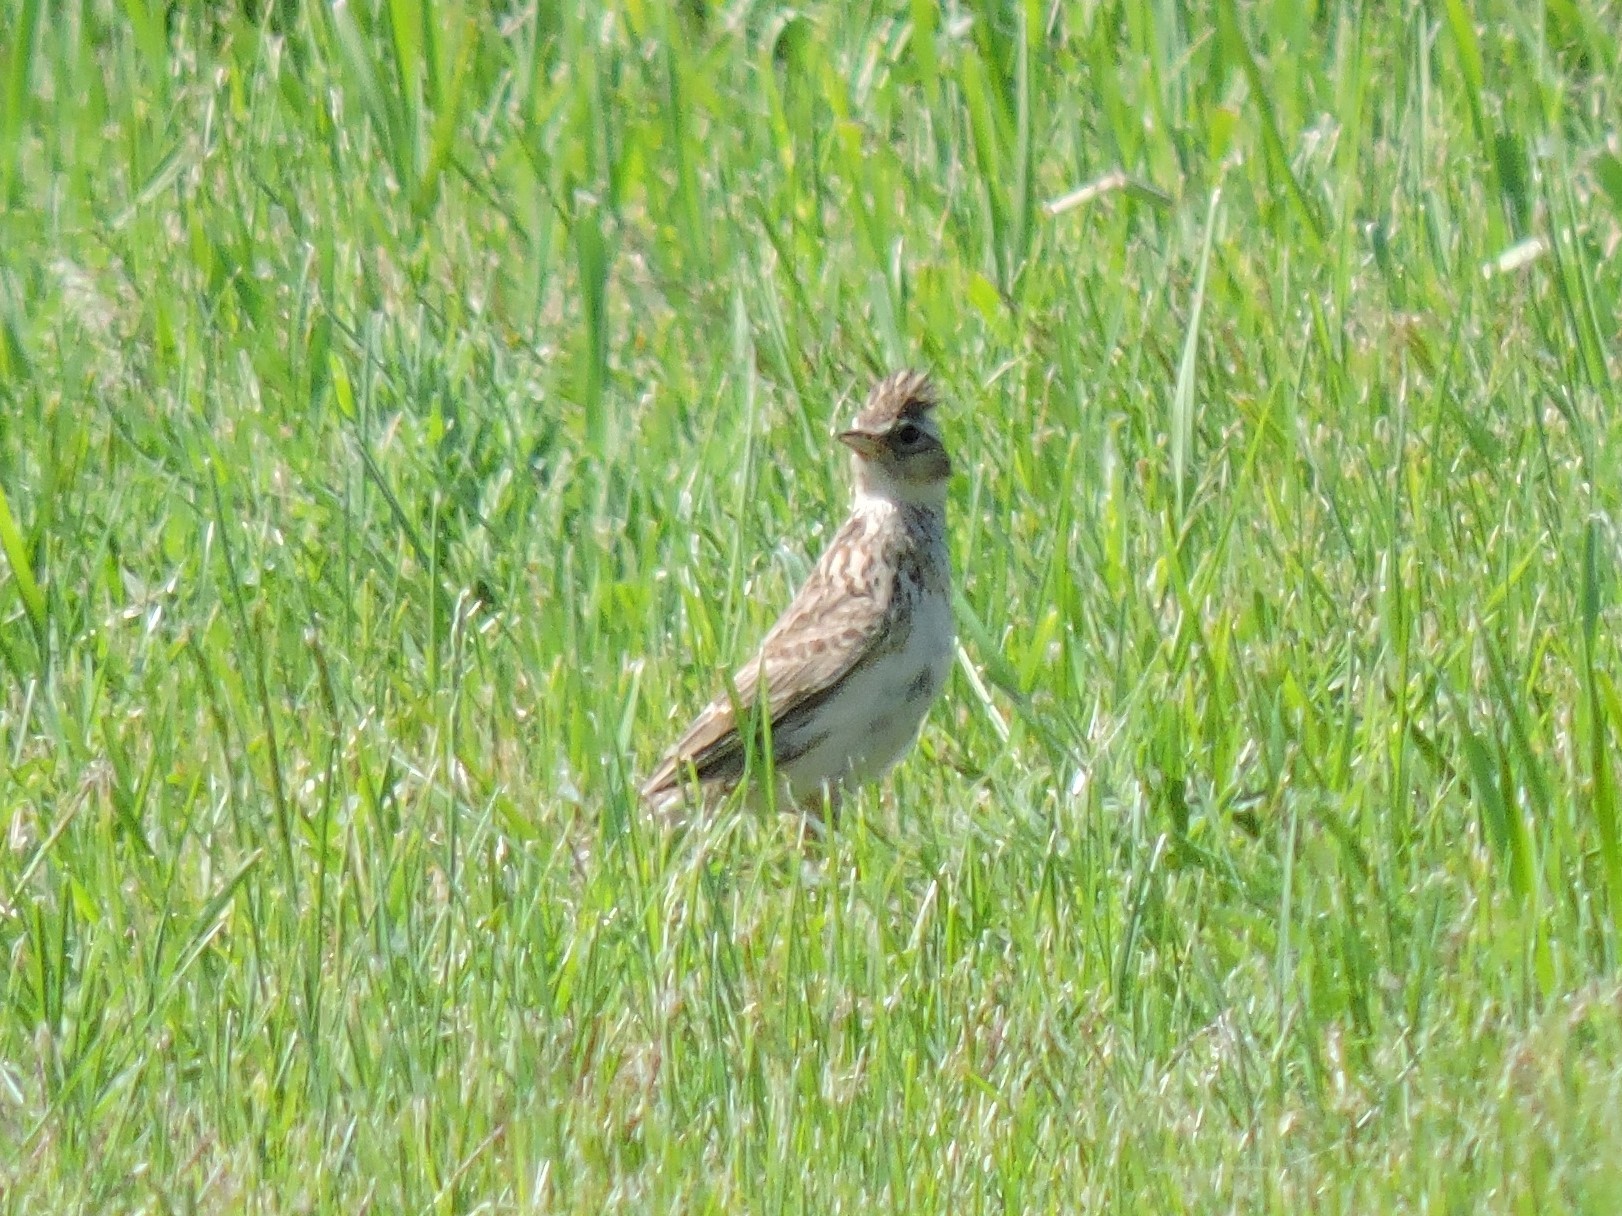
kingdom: Animalia
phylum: Chordata
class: Aves
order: Passeriformes
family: Alaudidae
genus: Alauda
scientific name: Alauda arvensis
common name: Eurasian skylark
